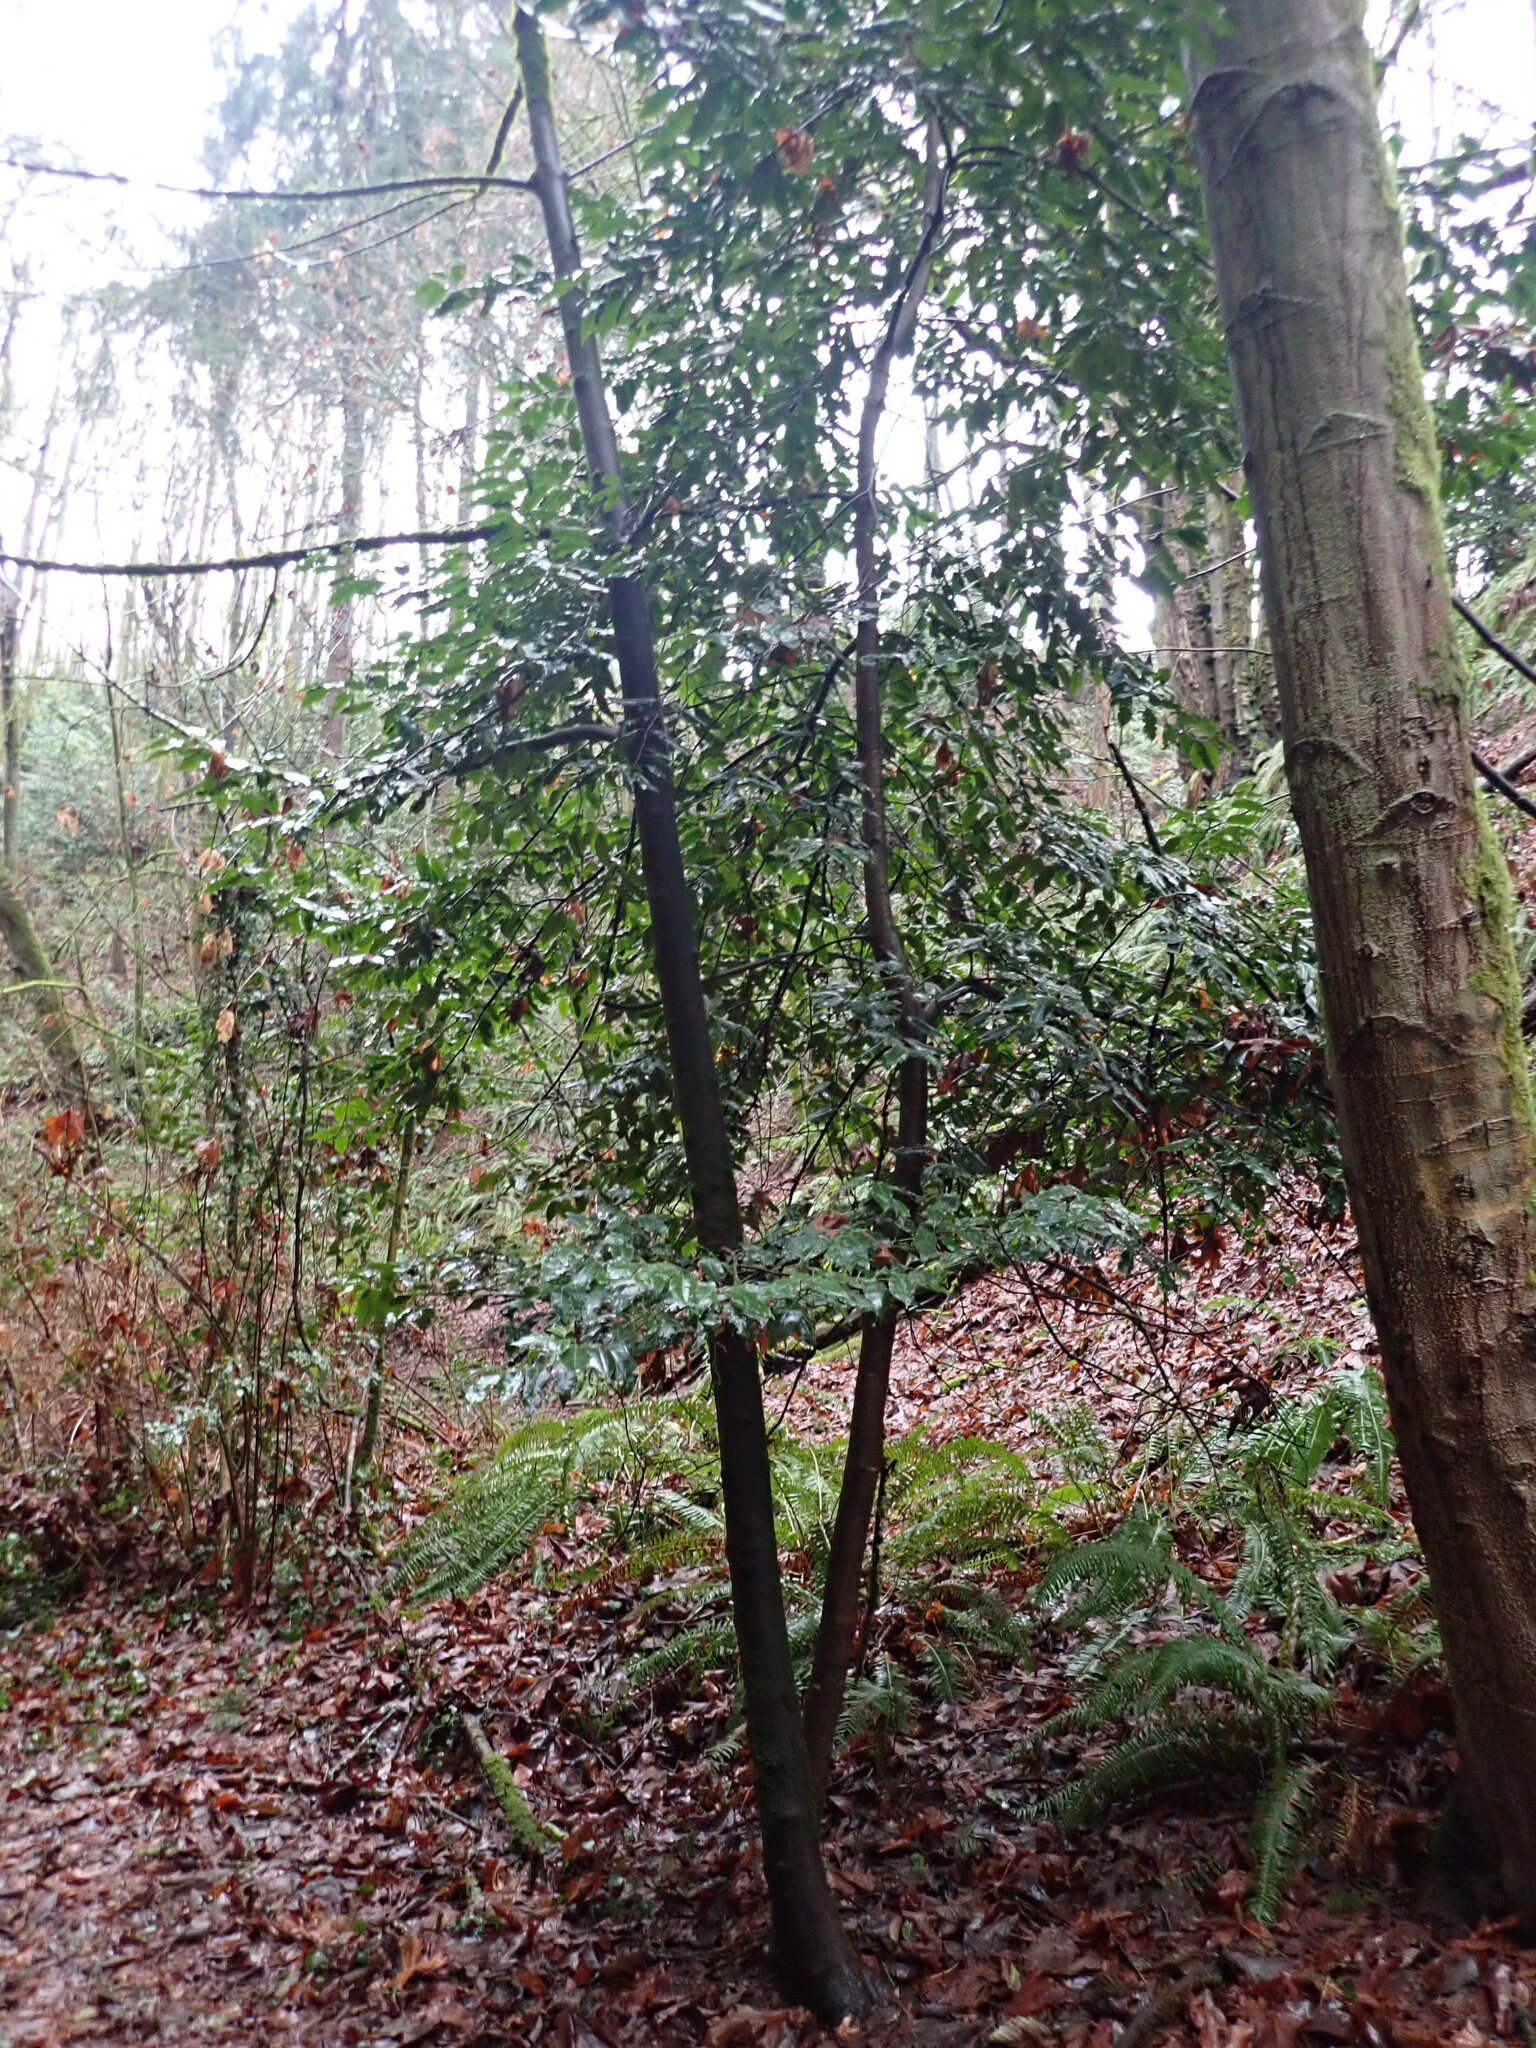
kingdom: Plantae
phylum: Tracheophyta
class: Magnoliopsida
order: Rosales
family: Rosaceae
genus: Prunus
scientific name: Prunus lusitanica
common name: Portugal laurel
